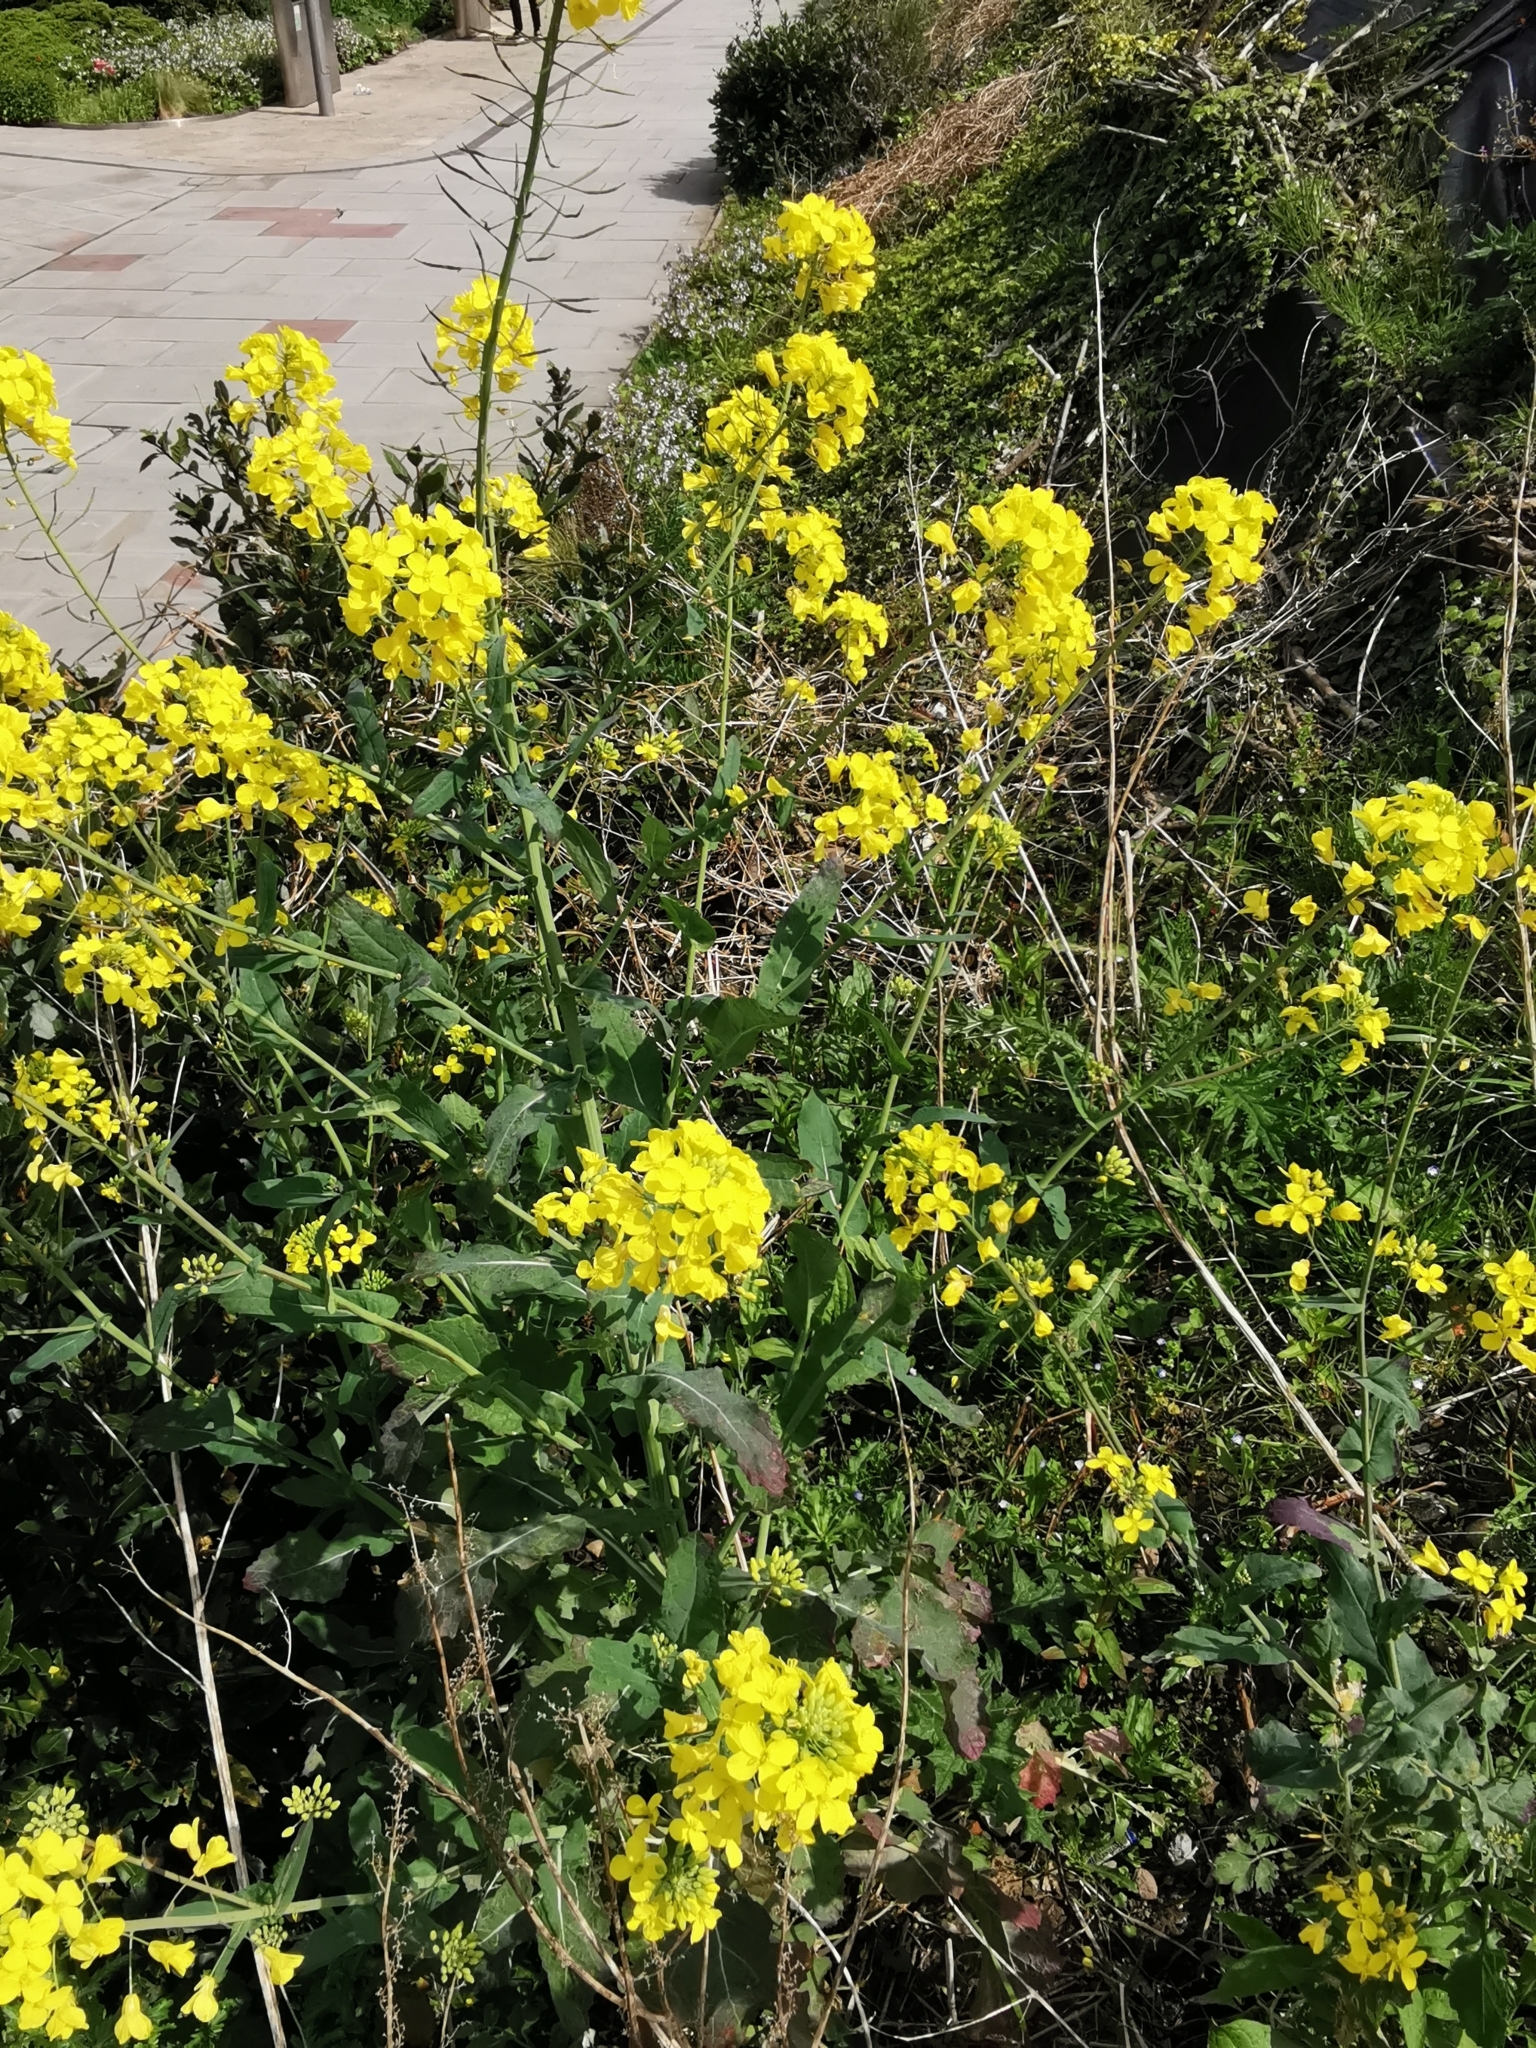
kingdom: Plantae
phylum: Tracheophyta
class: Magnoliopsida
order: Brassicales
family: Brassicaceae
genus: Brassica
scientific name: Brassica napus
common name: Rape
